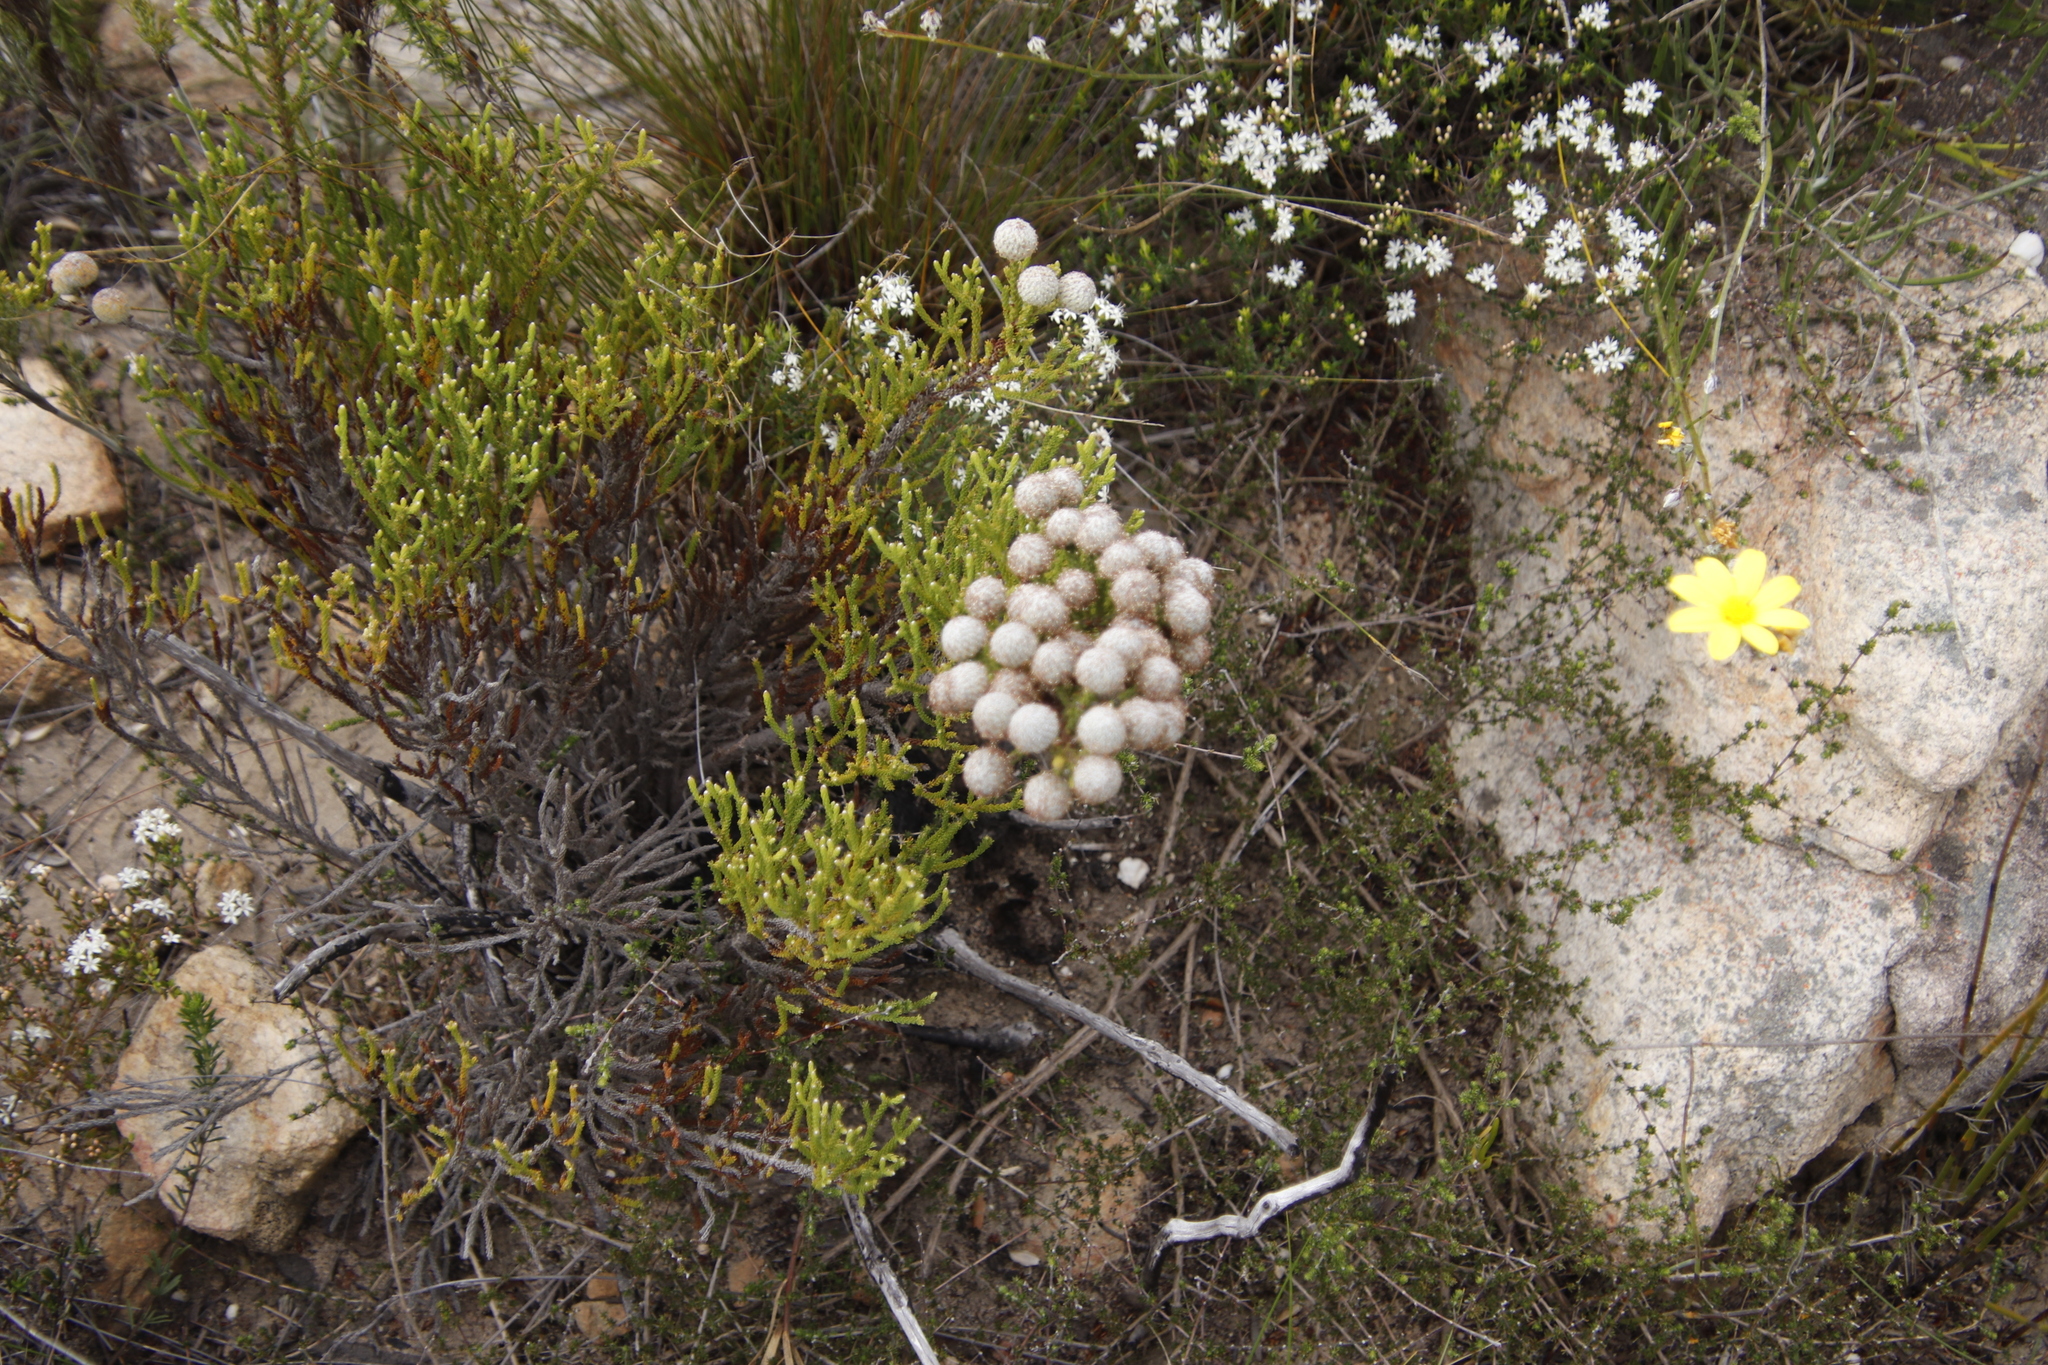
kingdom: Plantae
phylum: Tracheophyta
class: Magnoliopsida
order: Bruniales
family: Bruniaceae
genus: Brunia
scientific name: Brunia noduliflora
